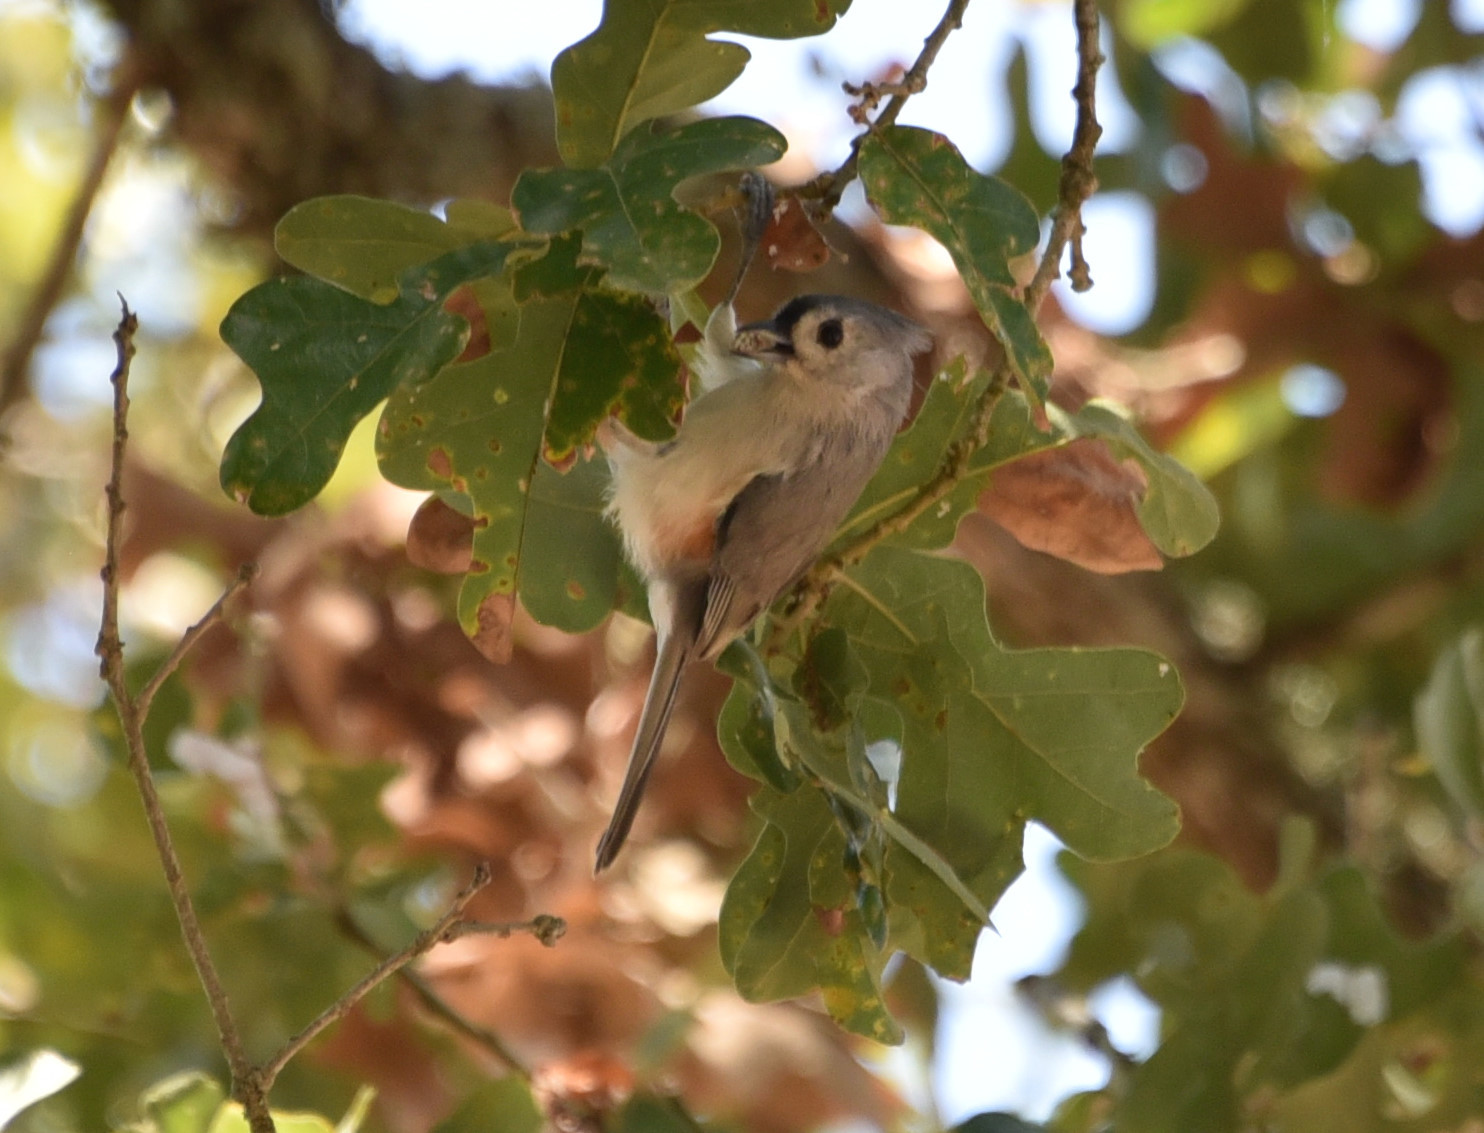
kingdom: Animalia
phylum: Chordata
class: Aves
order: Passeriformes
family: Paridae
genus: Baeolophus
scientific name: Baeolophus bicolor
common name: Tufted titmouse
